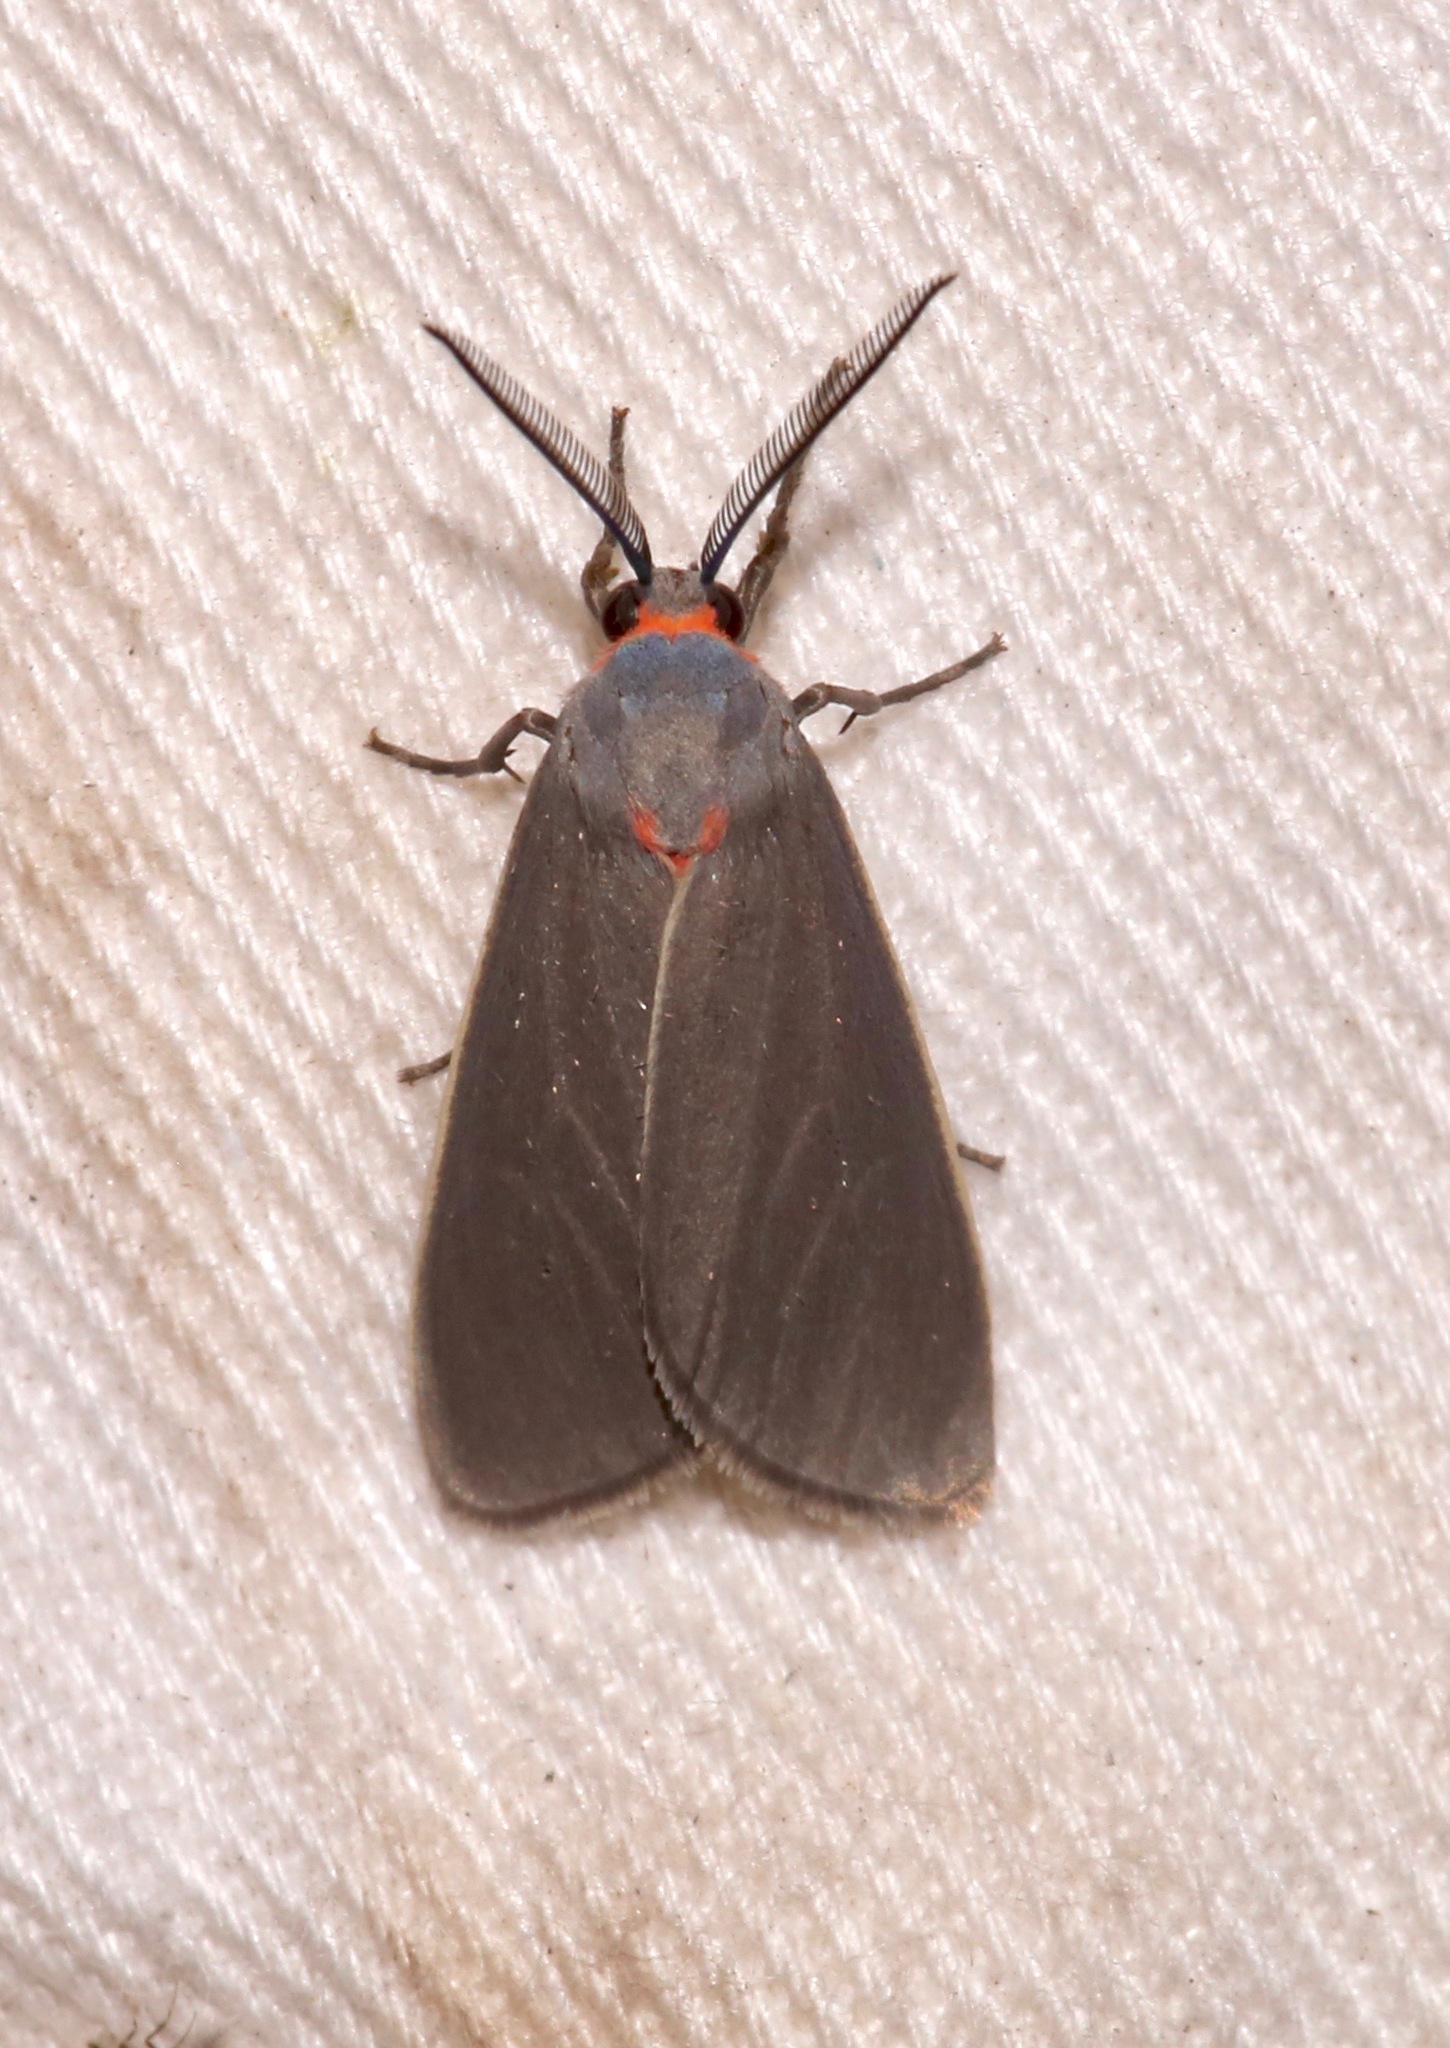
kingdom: Animalia
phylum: Arthropoda
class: Insecta
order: Lepidoptera
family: Erebidae
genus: Pygarctia
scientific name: Pygarctia murina
